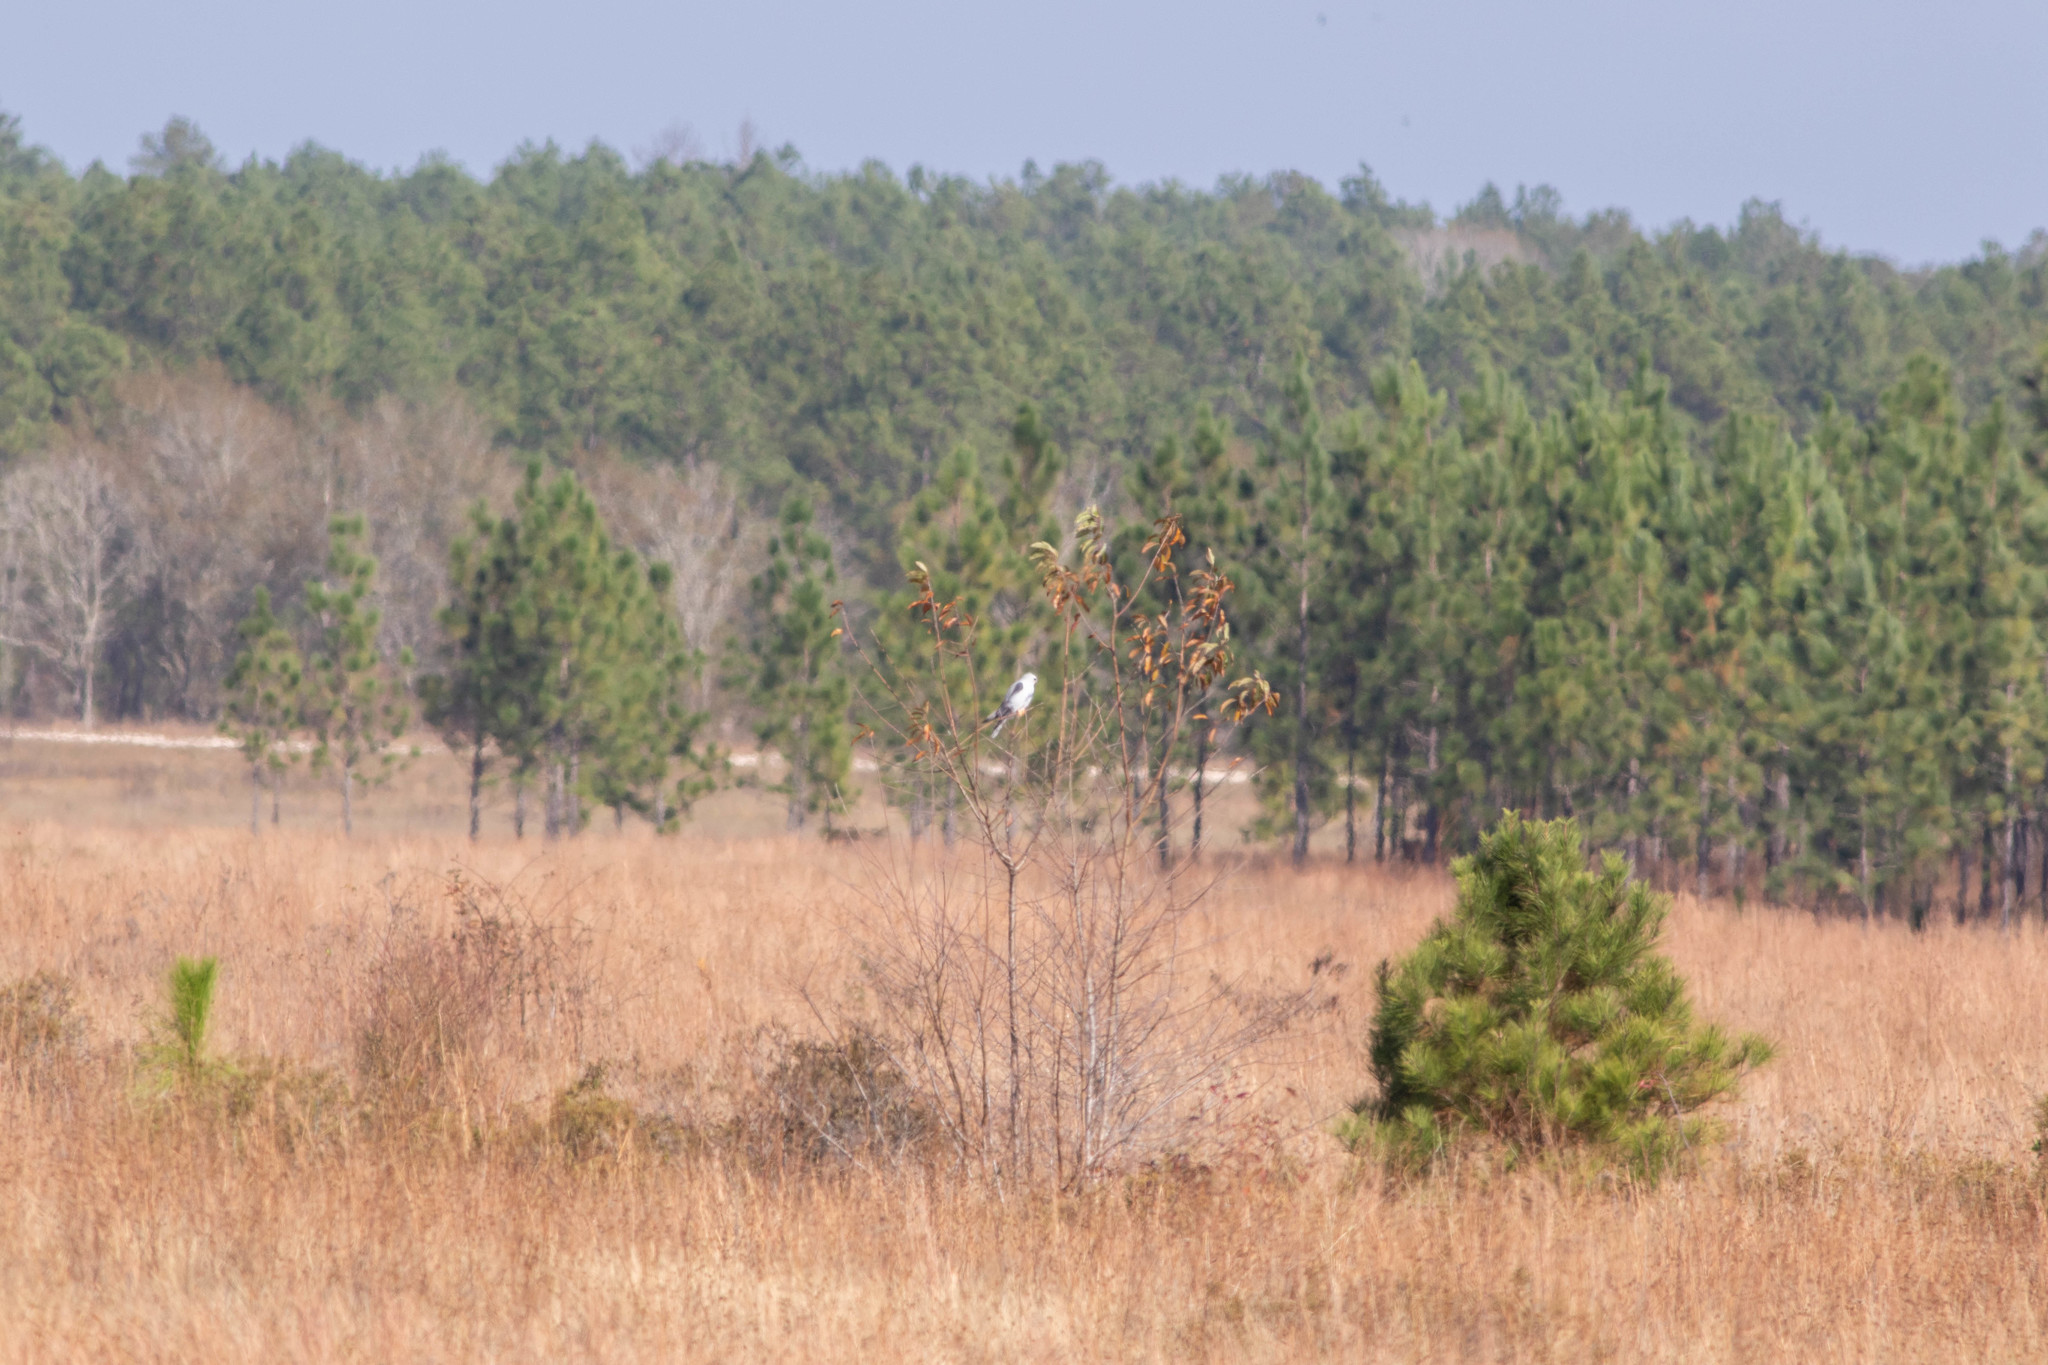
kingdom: Animalia
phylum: Chordata
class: Aves
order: Accipitriformes
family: Accipitridae
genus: Elanus
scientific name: Elanus leucurus
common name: White-tailed kite
